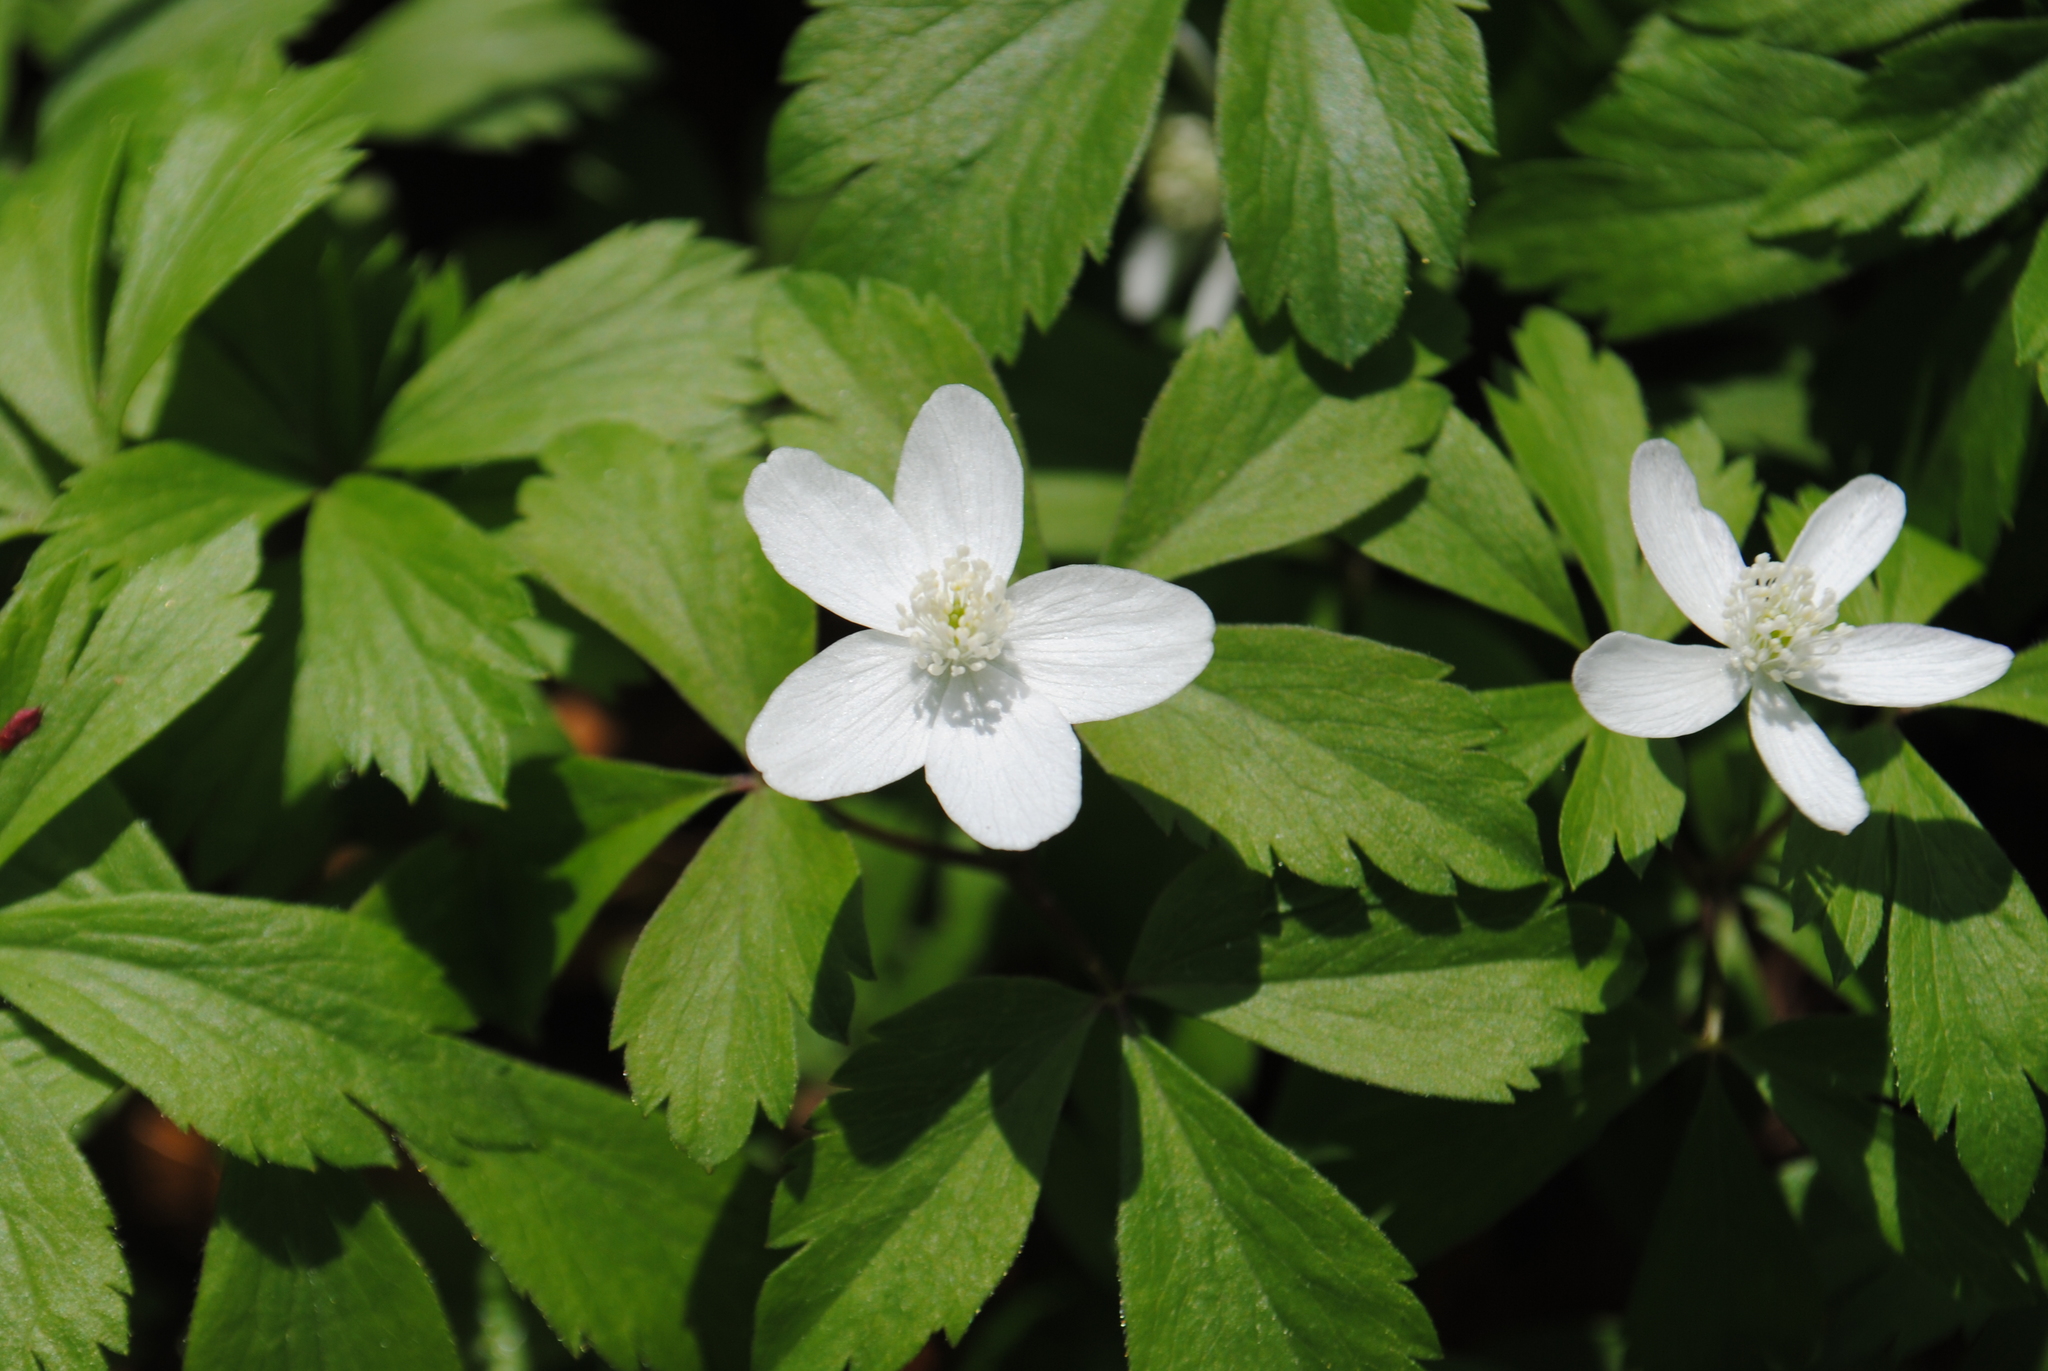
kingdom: Plantae
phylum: Tracheophyta
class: Magnoliopsida
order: Ranunculales
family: Ranunculaceae
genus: Anemone
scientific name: Anemone quinquefolia
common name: Wood anemone
